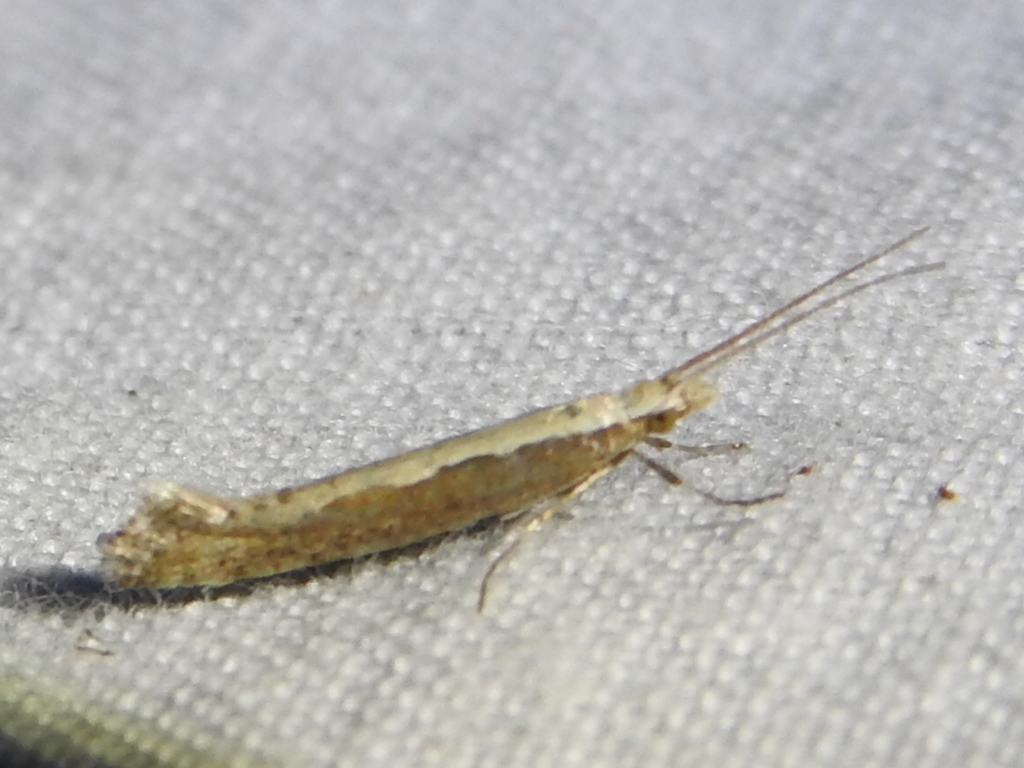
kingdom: Animalia
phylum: Arthropoda
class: Insecta
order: Lepidoptera
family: Plutellidae
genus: Plutella
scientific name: Plutella xylostella
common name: Diamond-back moth
